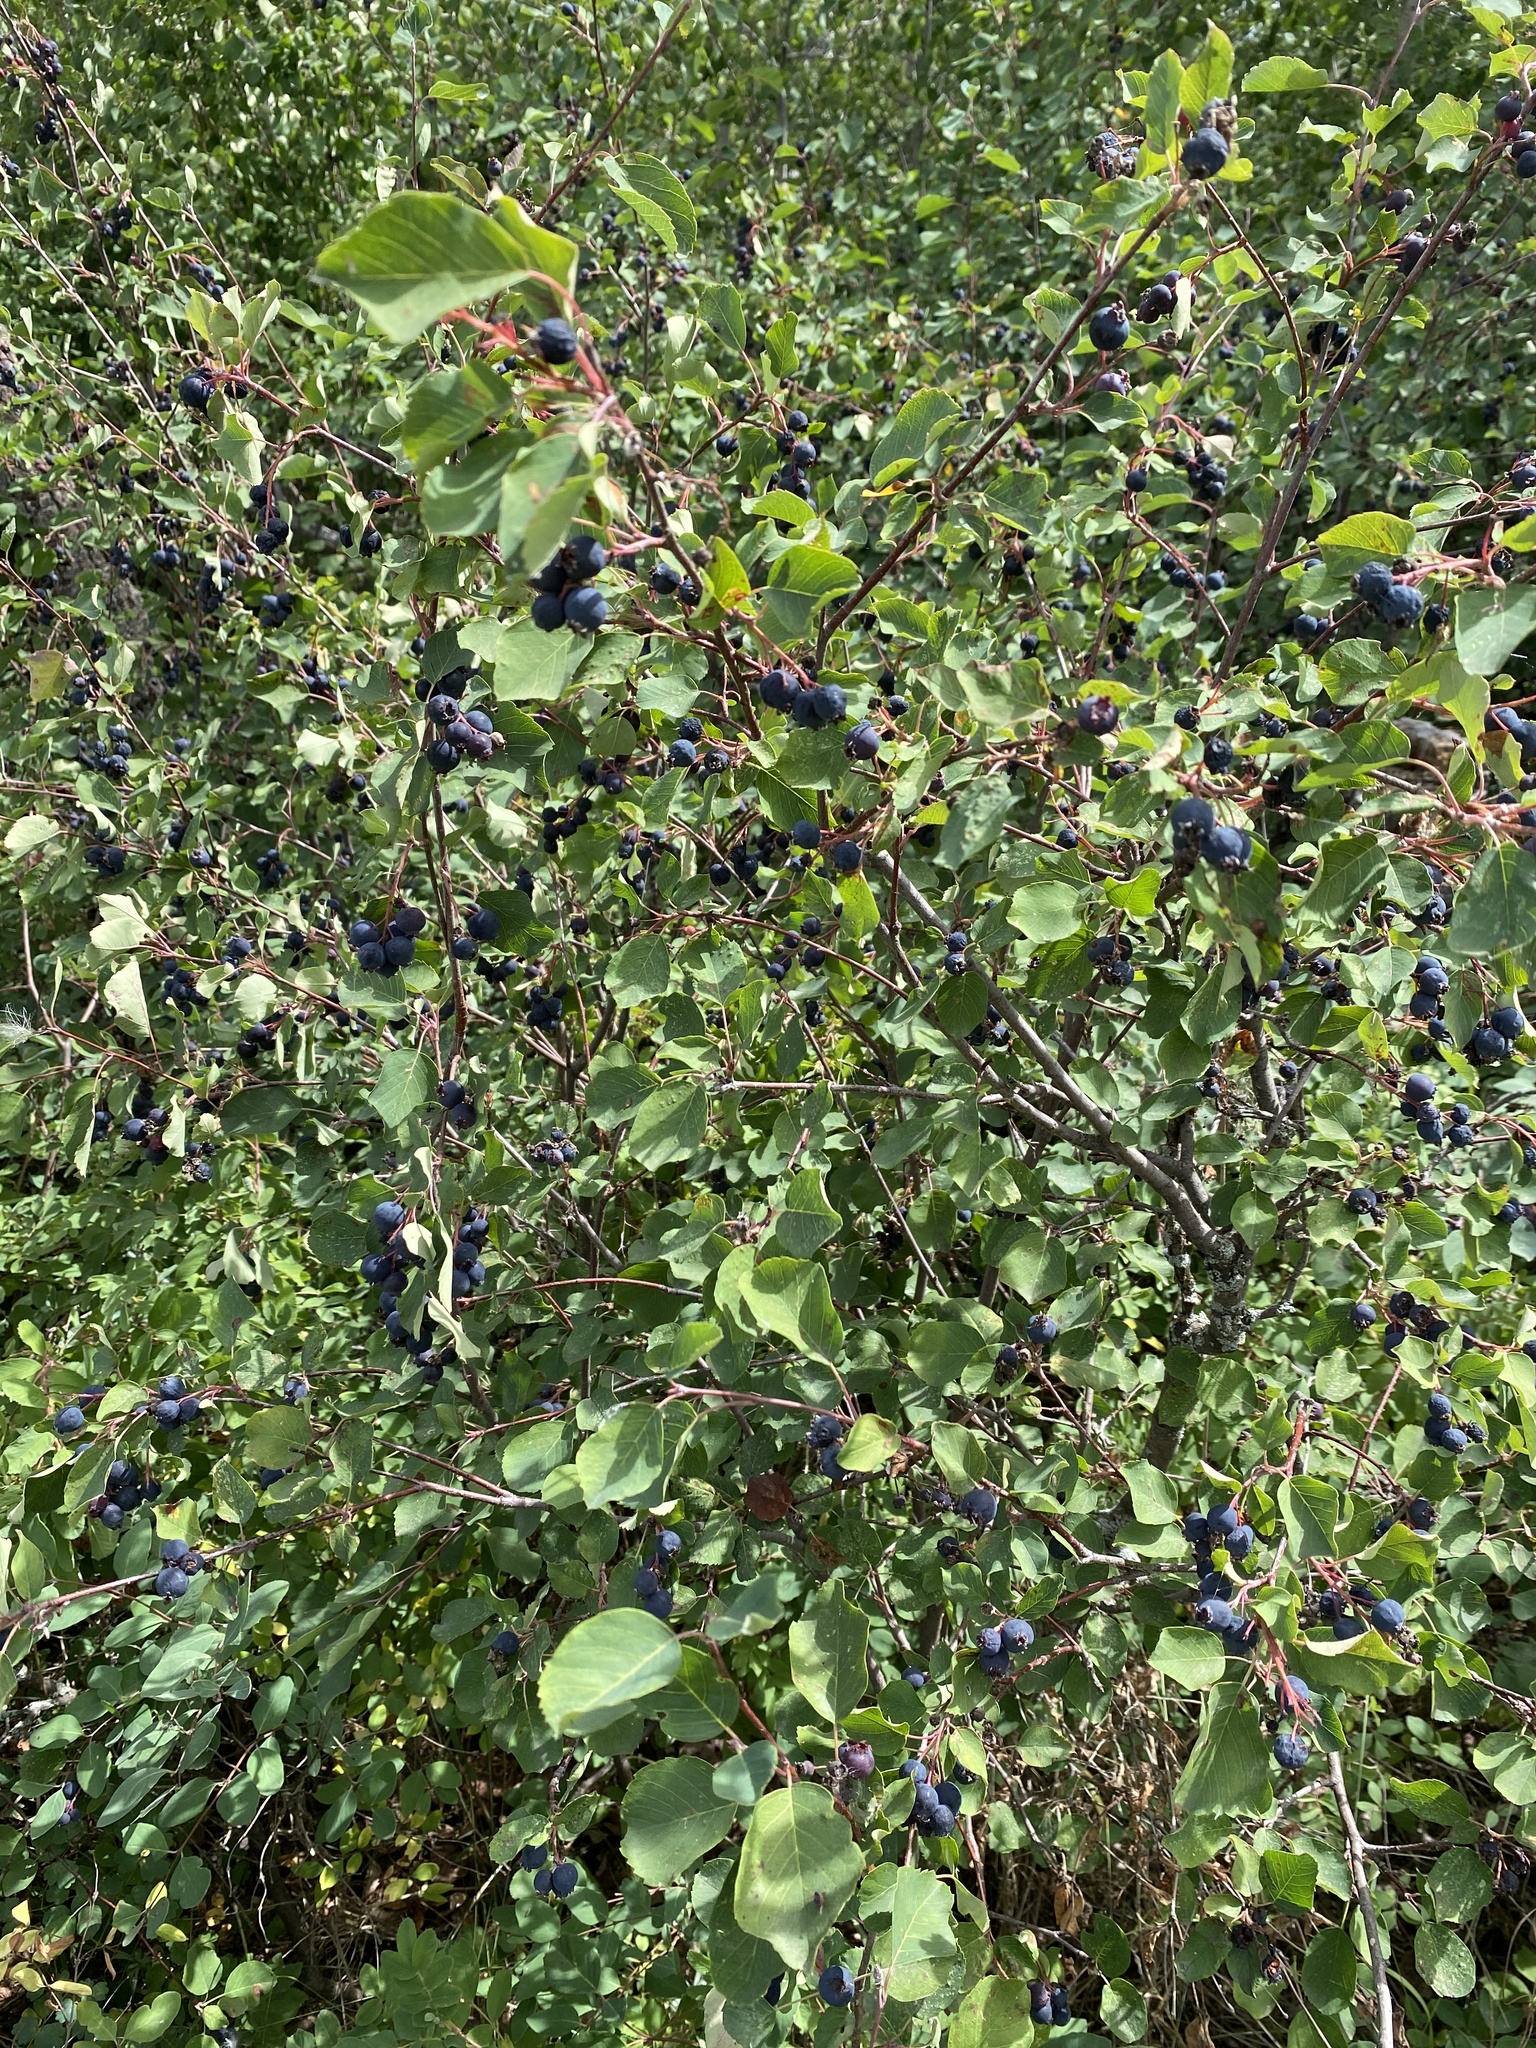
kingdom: Plantae
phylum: Tracheophyta
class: Magnoliopsida
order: Rosales
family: Rosaceae
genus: Amelanchier
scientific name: Amelanchier alnifolia
